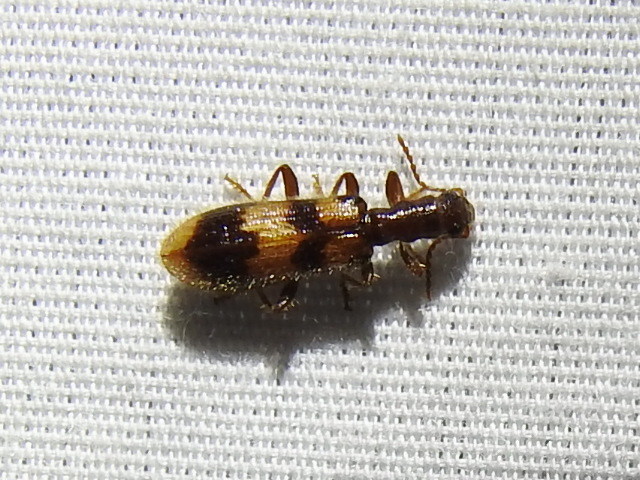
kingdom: Animalia
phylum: Arthropoda
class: Insecta
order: Coleoptera
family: Cleridae
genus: Cymatodera
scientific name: Cymatodera sirpata
